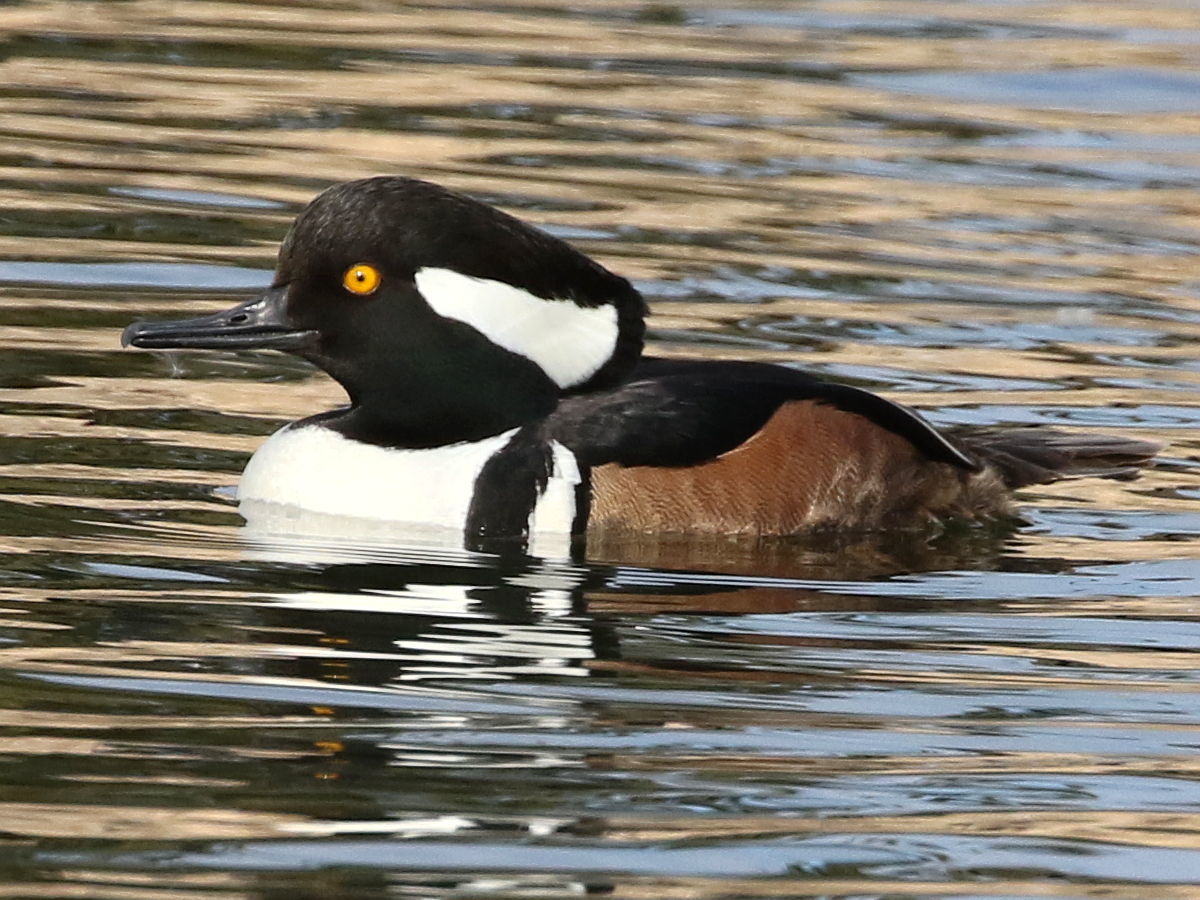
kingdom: Animalia
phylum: Chordata
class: Aves
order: Anseriformes
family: Anatidae
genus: Lophodytes
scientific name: Lophodytes cucullatus
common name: Hooded merganser
